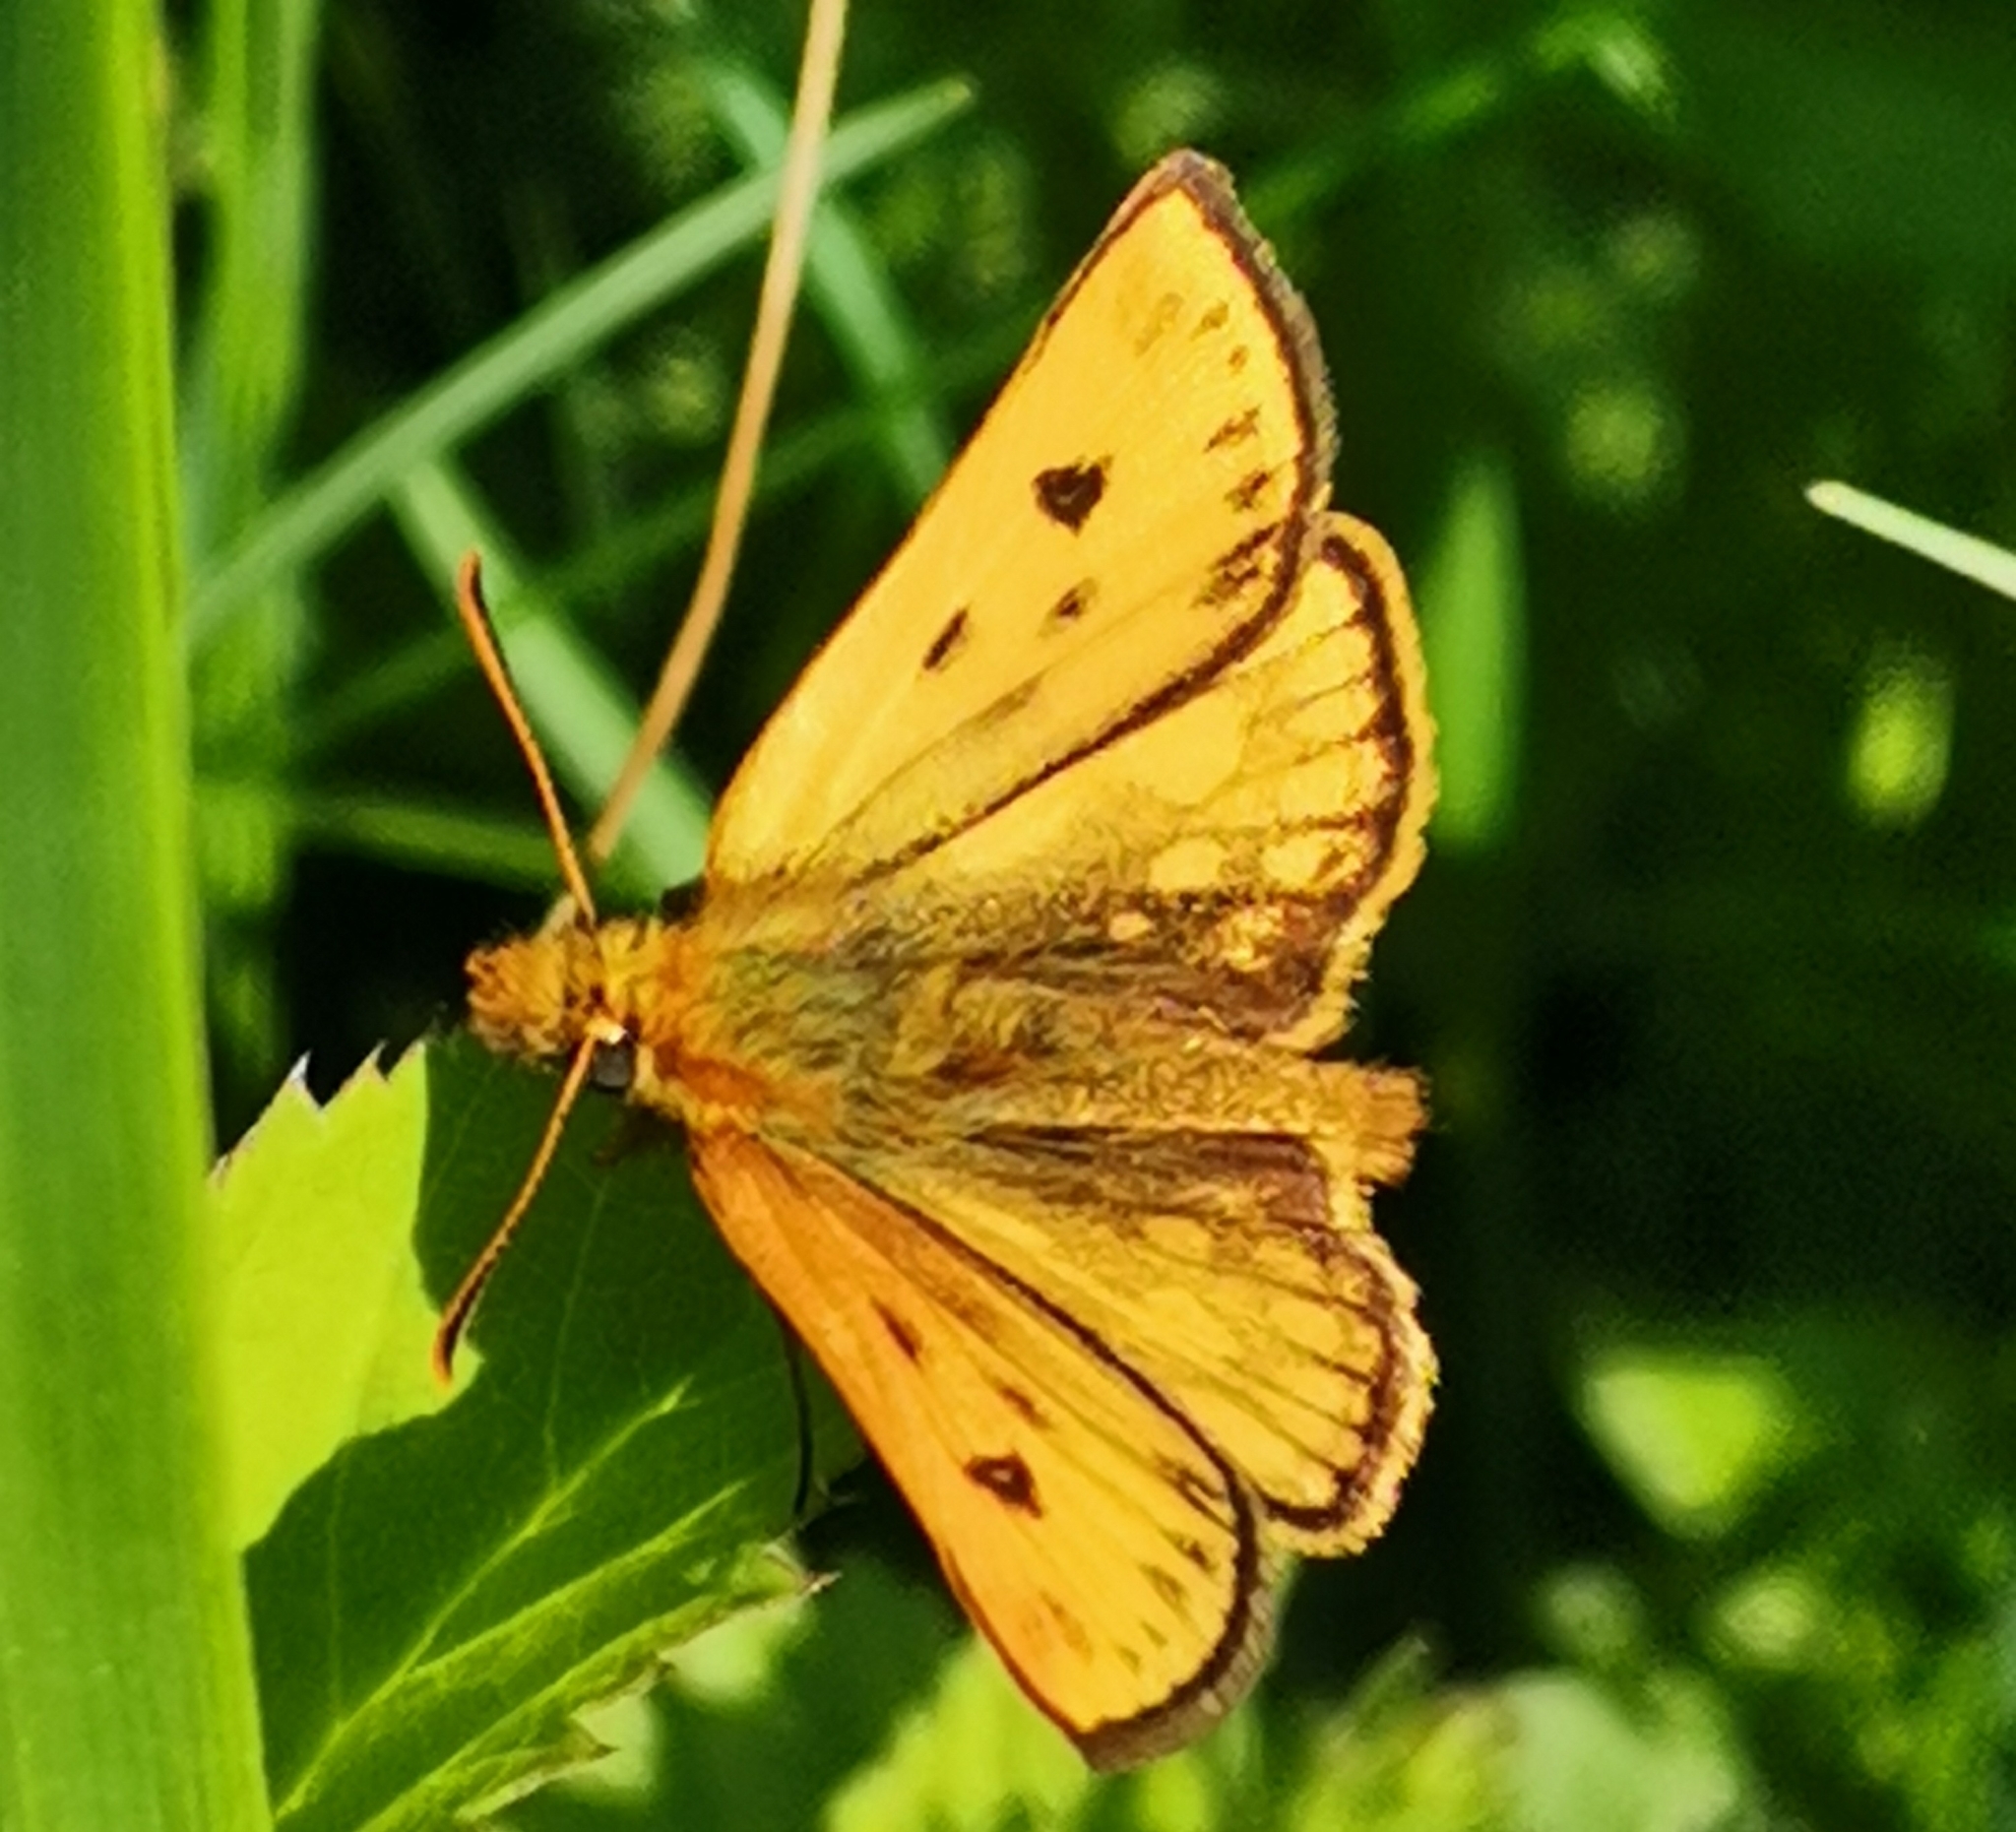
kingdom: Animalia
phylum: Arthropoda
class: Insecta
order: Lepidoptera
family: Hesperiidae
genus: Carterocephalus
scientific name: Carterocephalus silvicola
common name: Northern chequered skipper
